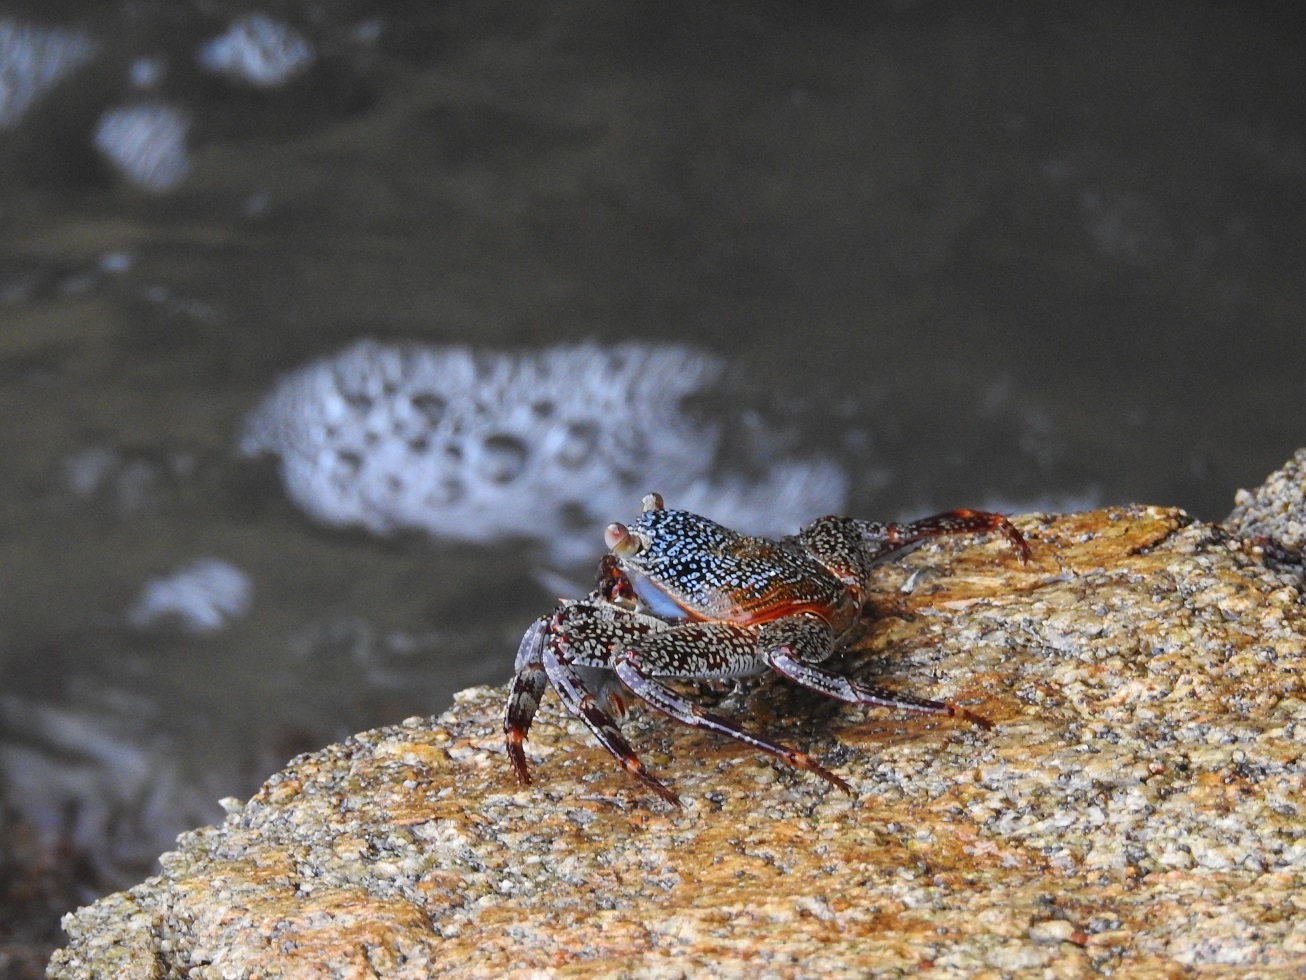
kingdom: Animalia
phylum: Arthropoda
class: Malacostraca
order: Decapoda
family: Grapsidae
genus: Grapsus
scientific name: Grapsus grapsus
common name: Sally lightfoot
